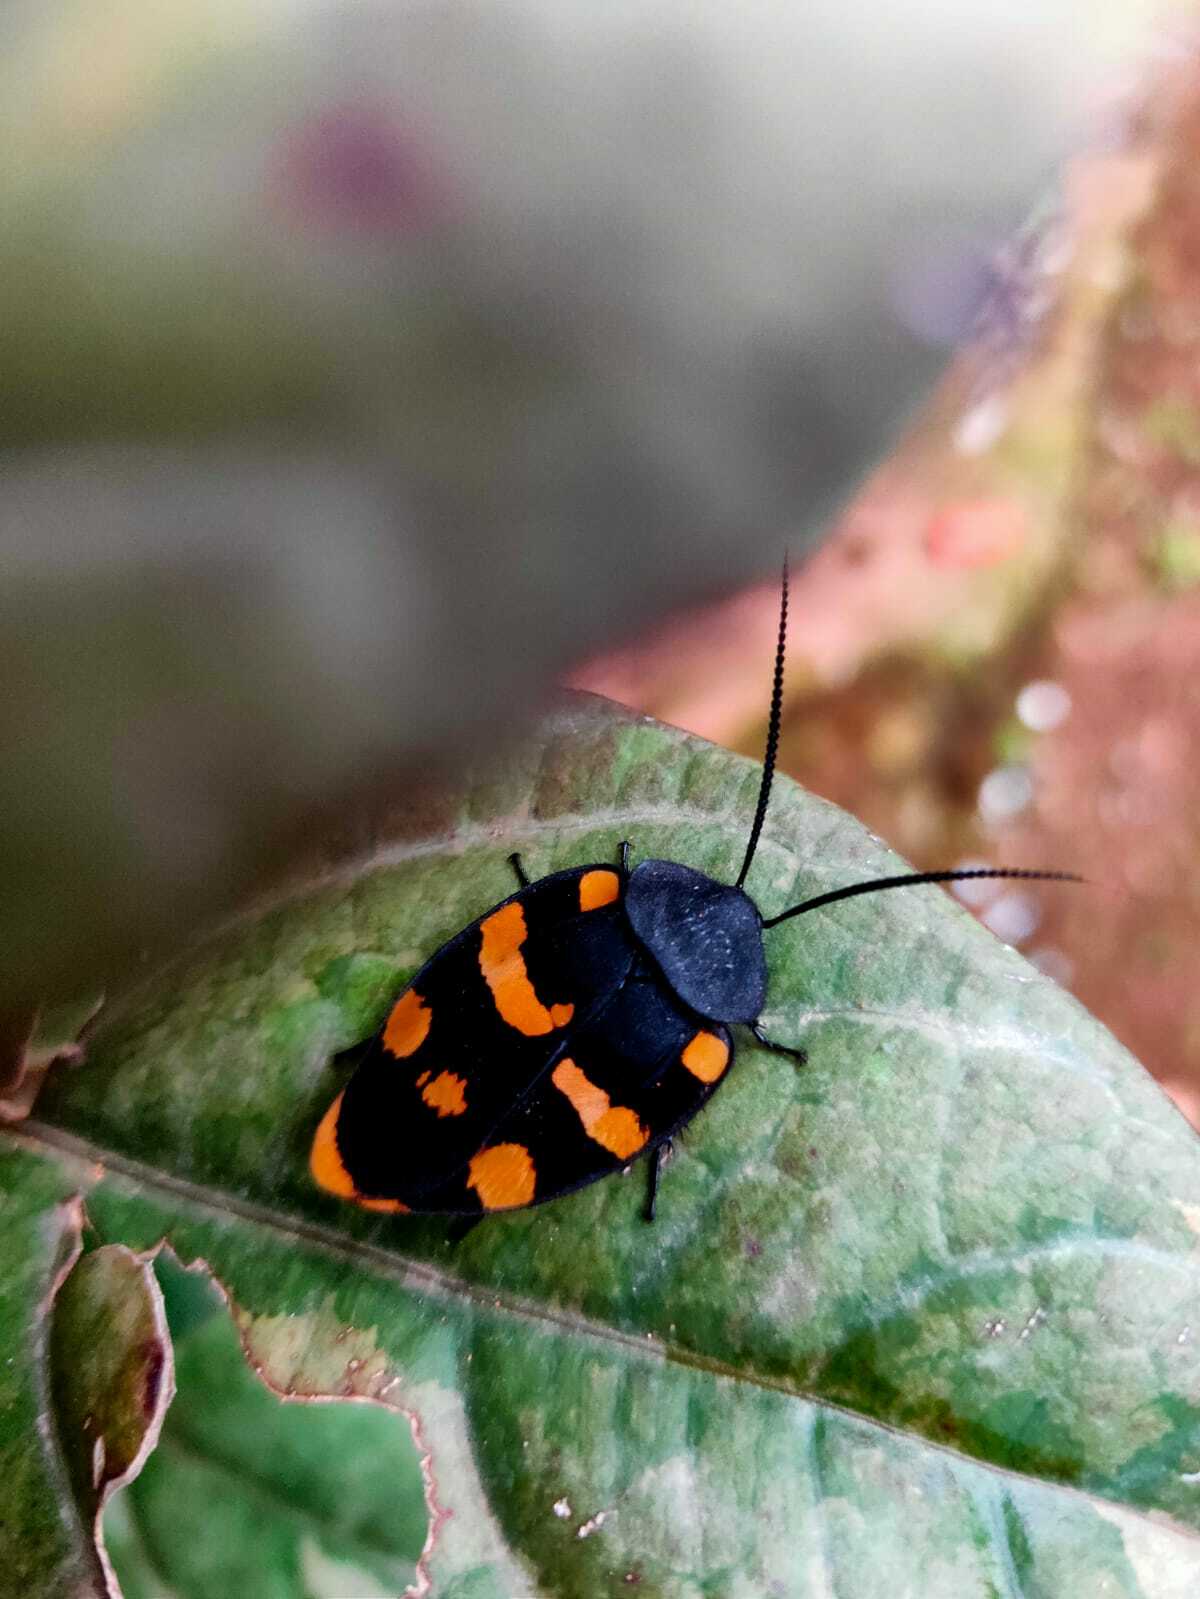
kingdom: Animalia
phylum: Arthropoda
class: Insecta
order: Blattodea
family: Corydiidae
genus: Therea
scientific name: Therea nuptialis
